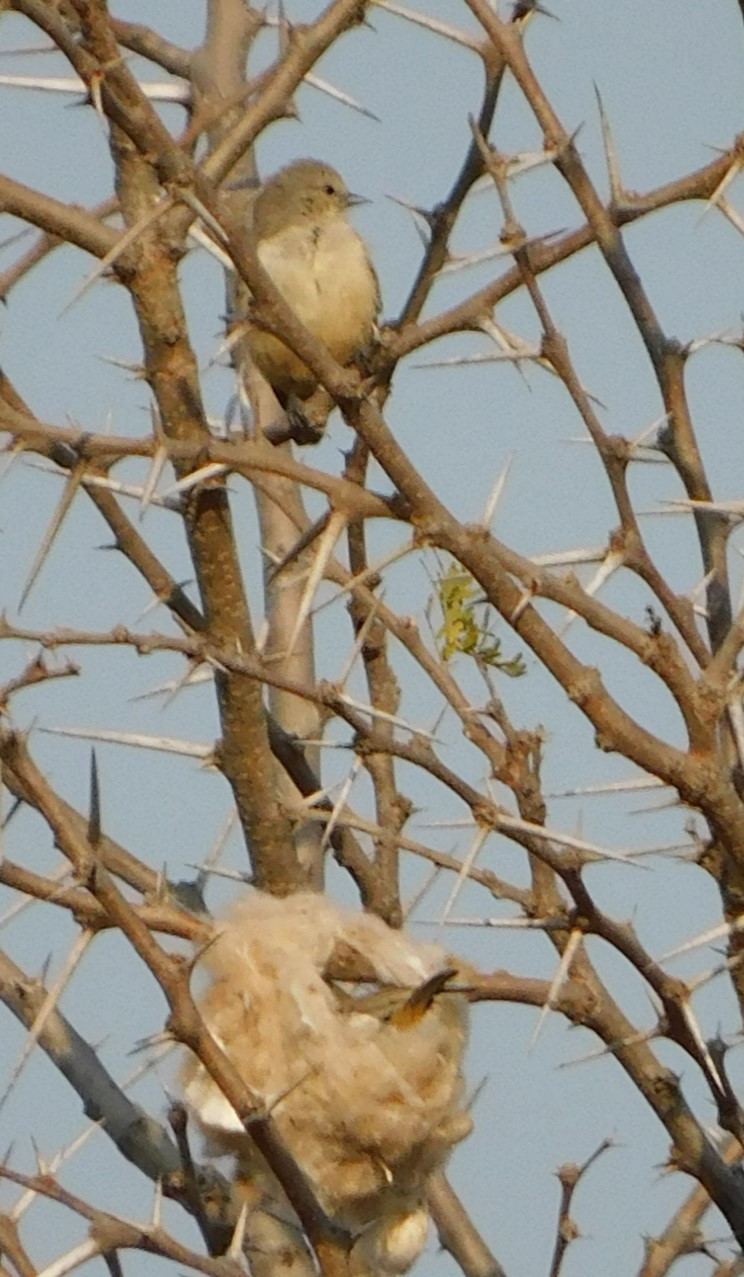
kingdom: Animalia
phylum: Chordata
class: Aves
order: Passeriformes
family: Remizidae
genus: Anthoscopus
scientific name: Anthoscopus caroli
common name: Grey penduline tit
